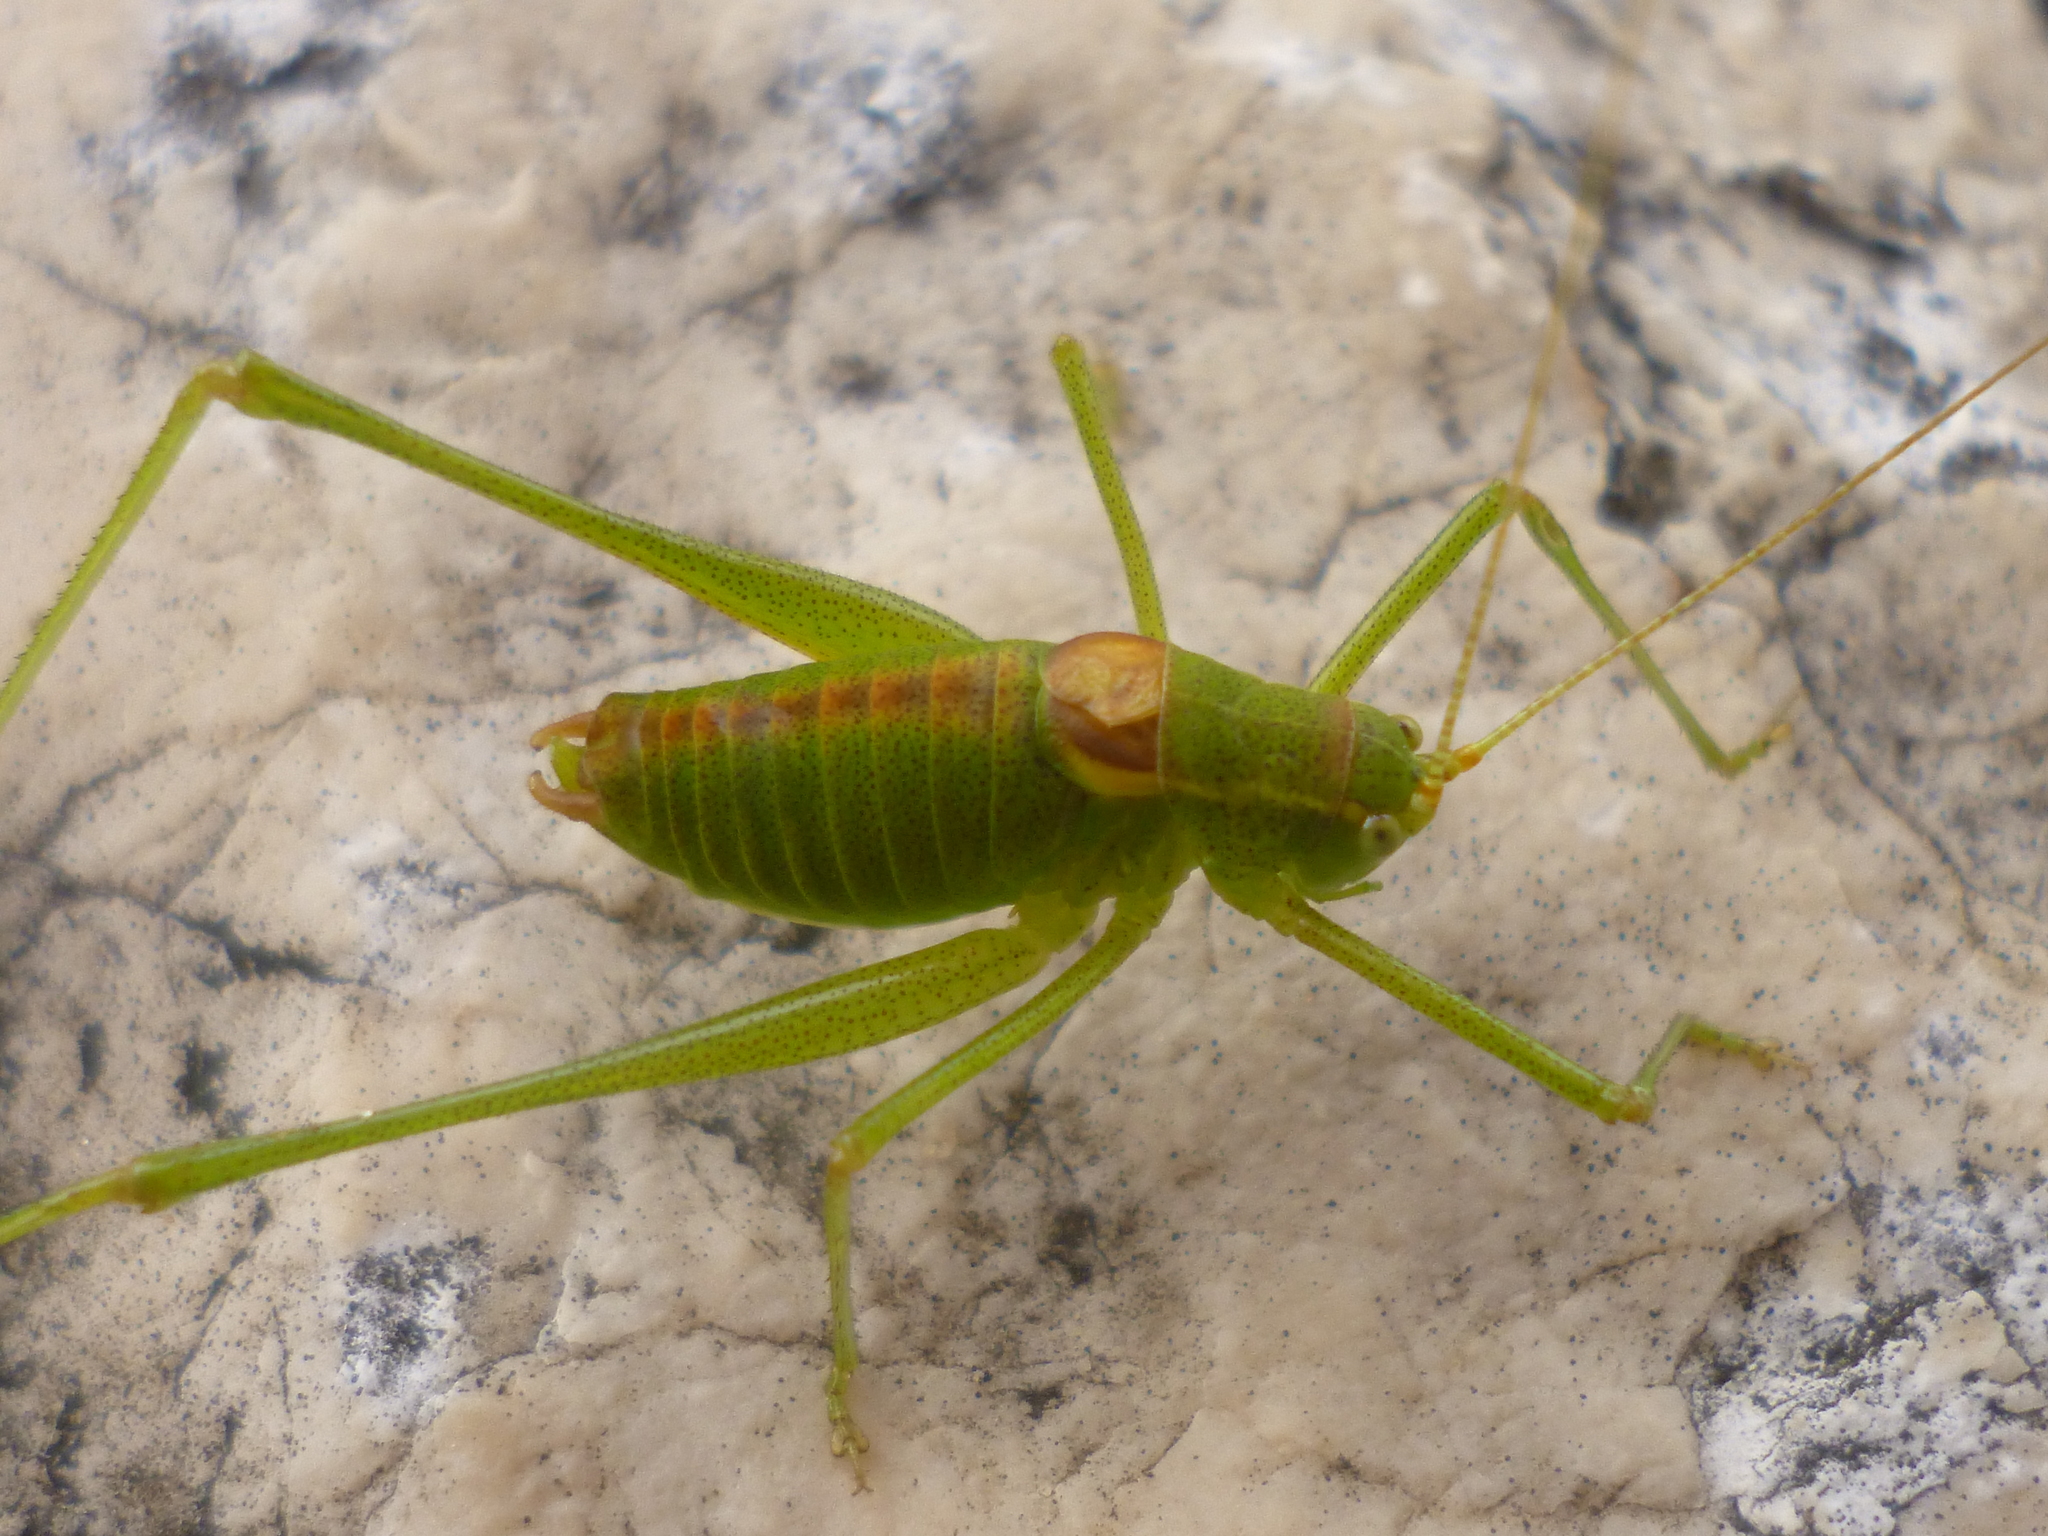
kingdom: Animalia
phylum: Arthropoda
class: Insecta
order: Orthoptera
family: Tettigoniidae
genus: Leptophyes
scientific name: Leptophyes intermedia
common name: Montenegrin speckled bush-cricket
